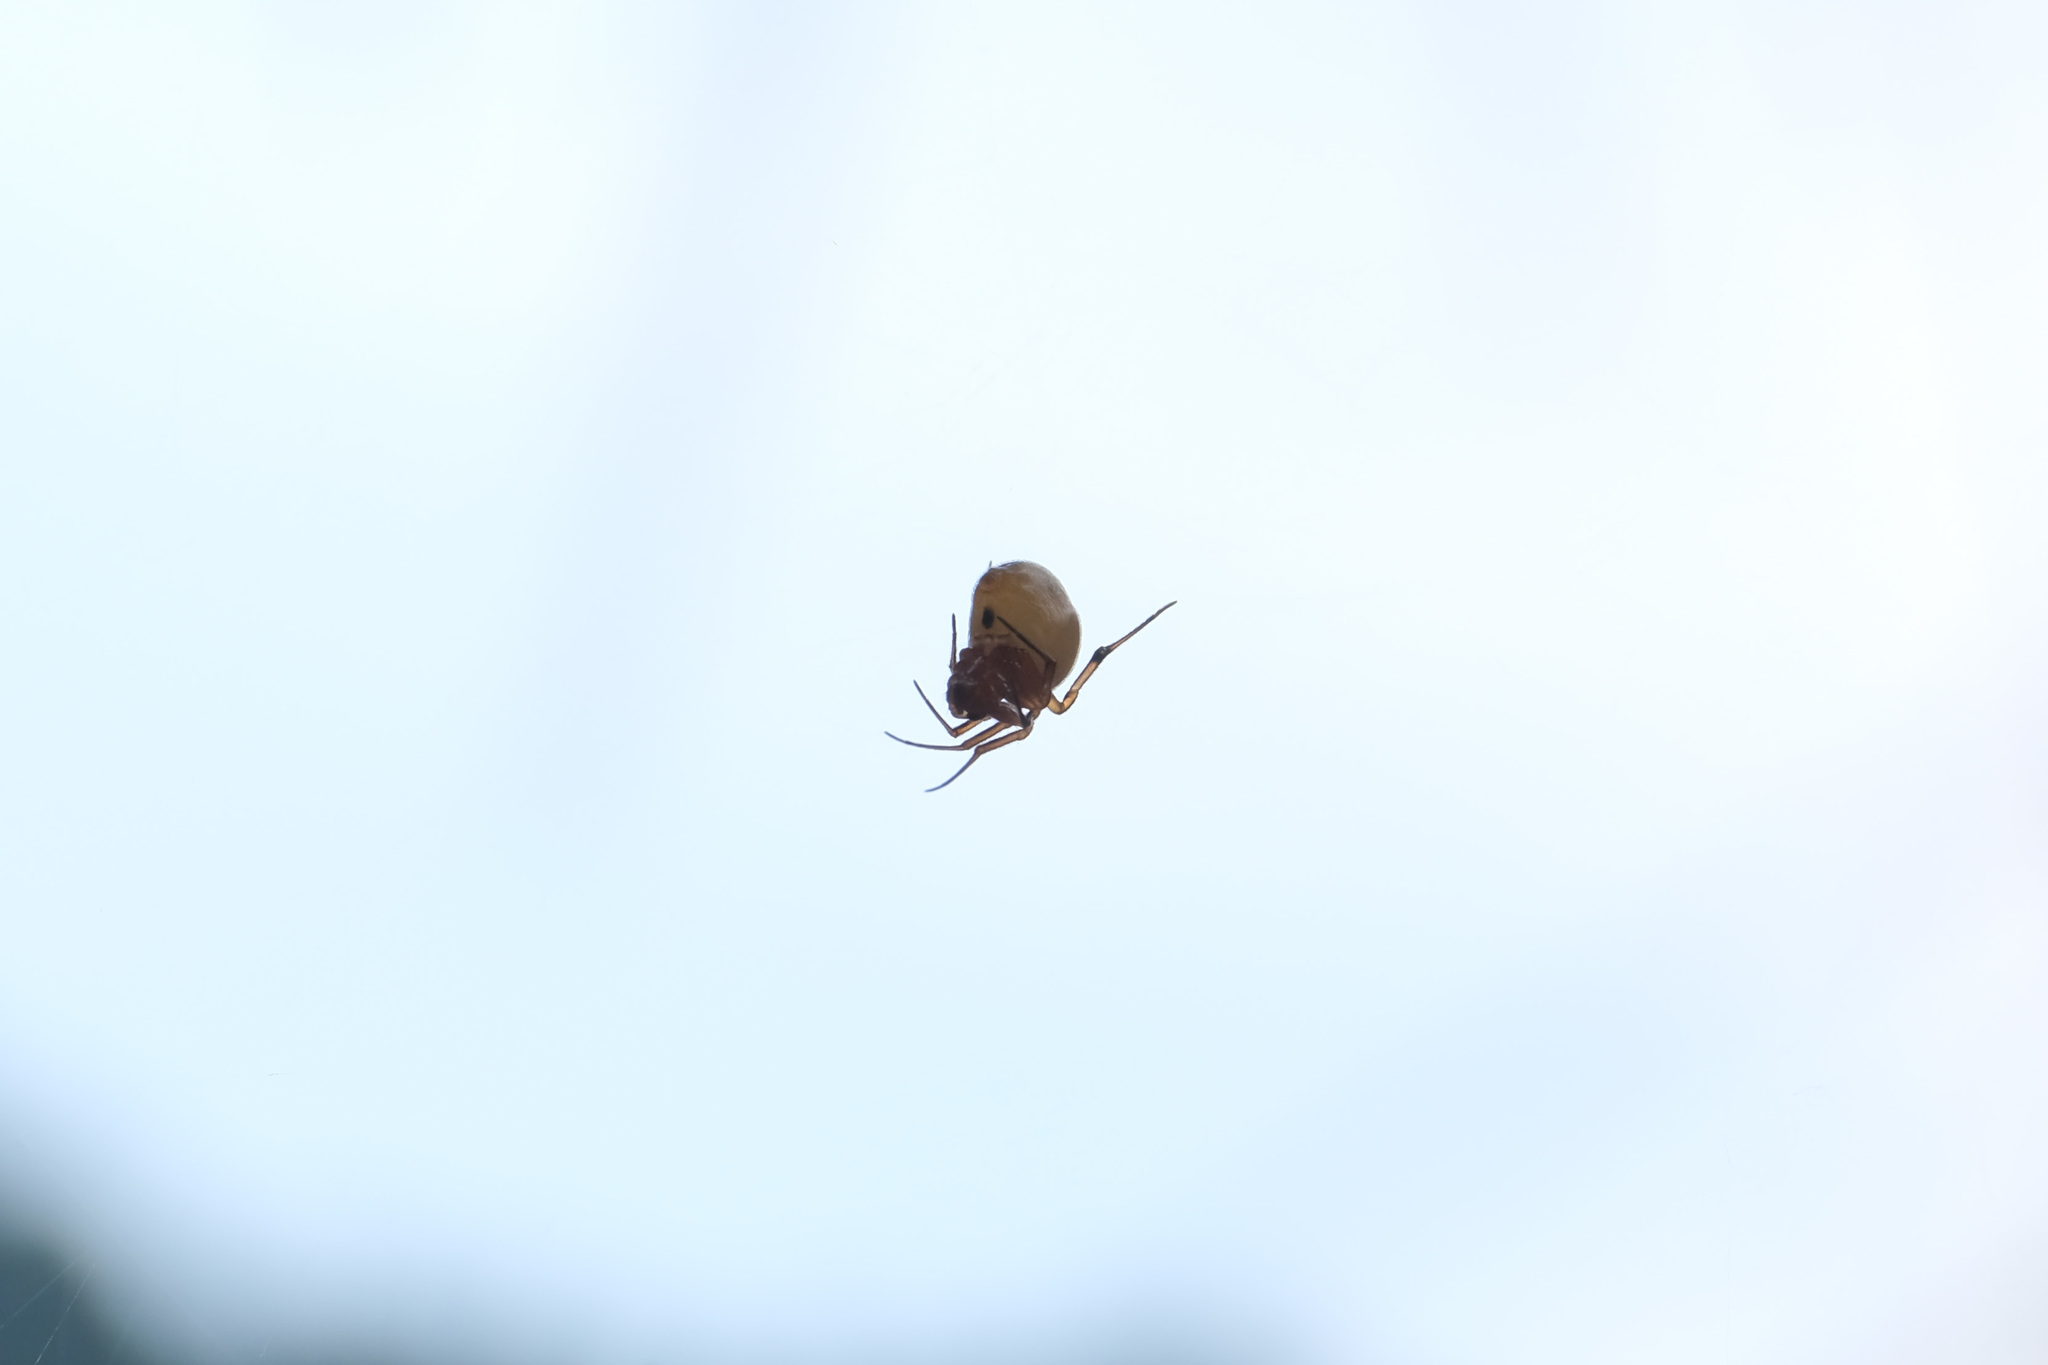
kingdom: Animalia
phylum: Arthropoda
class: Arachnida
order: Araneae
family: Theridiidae
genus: Nihonhimea
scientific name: Nihonhimea japonica
